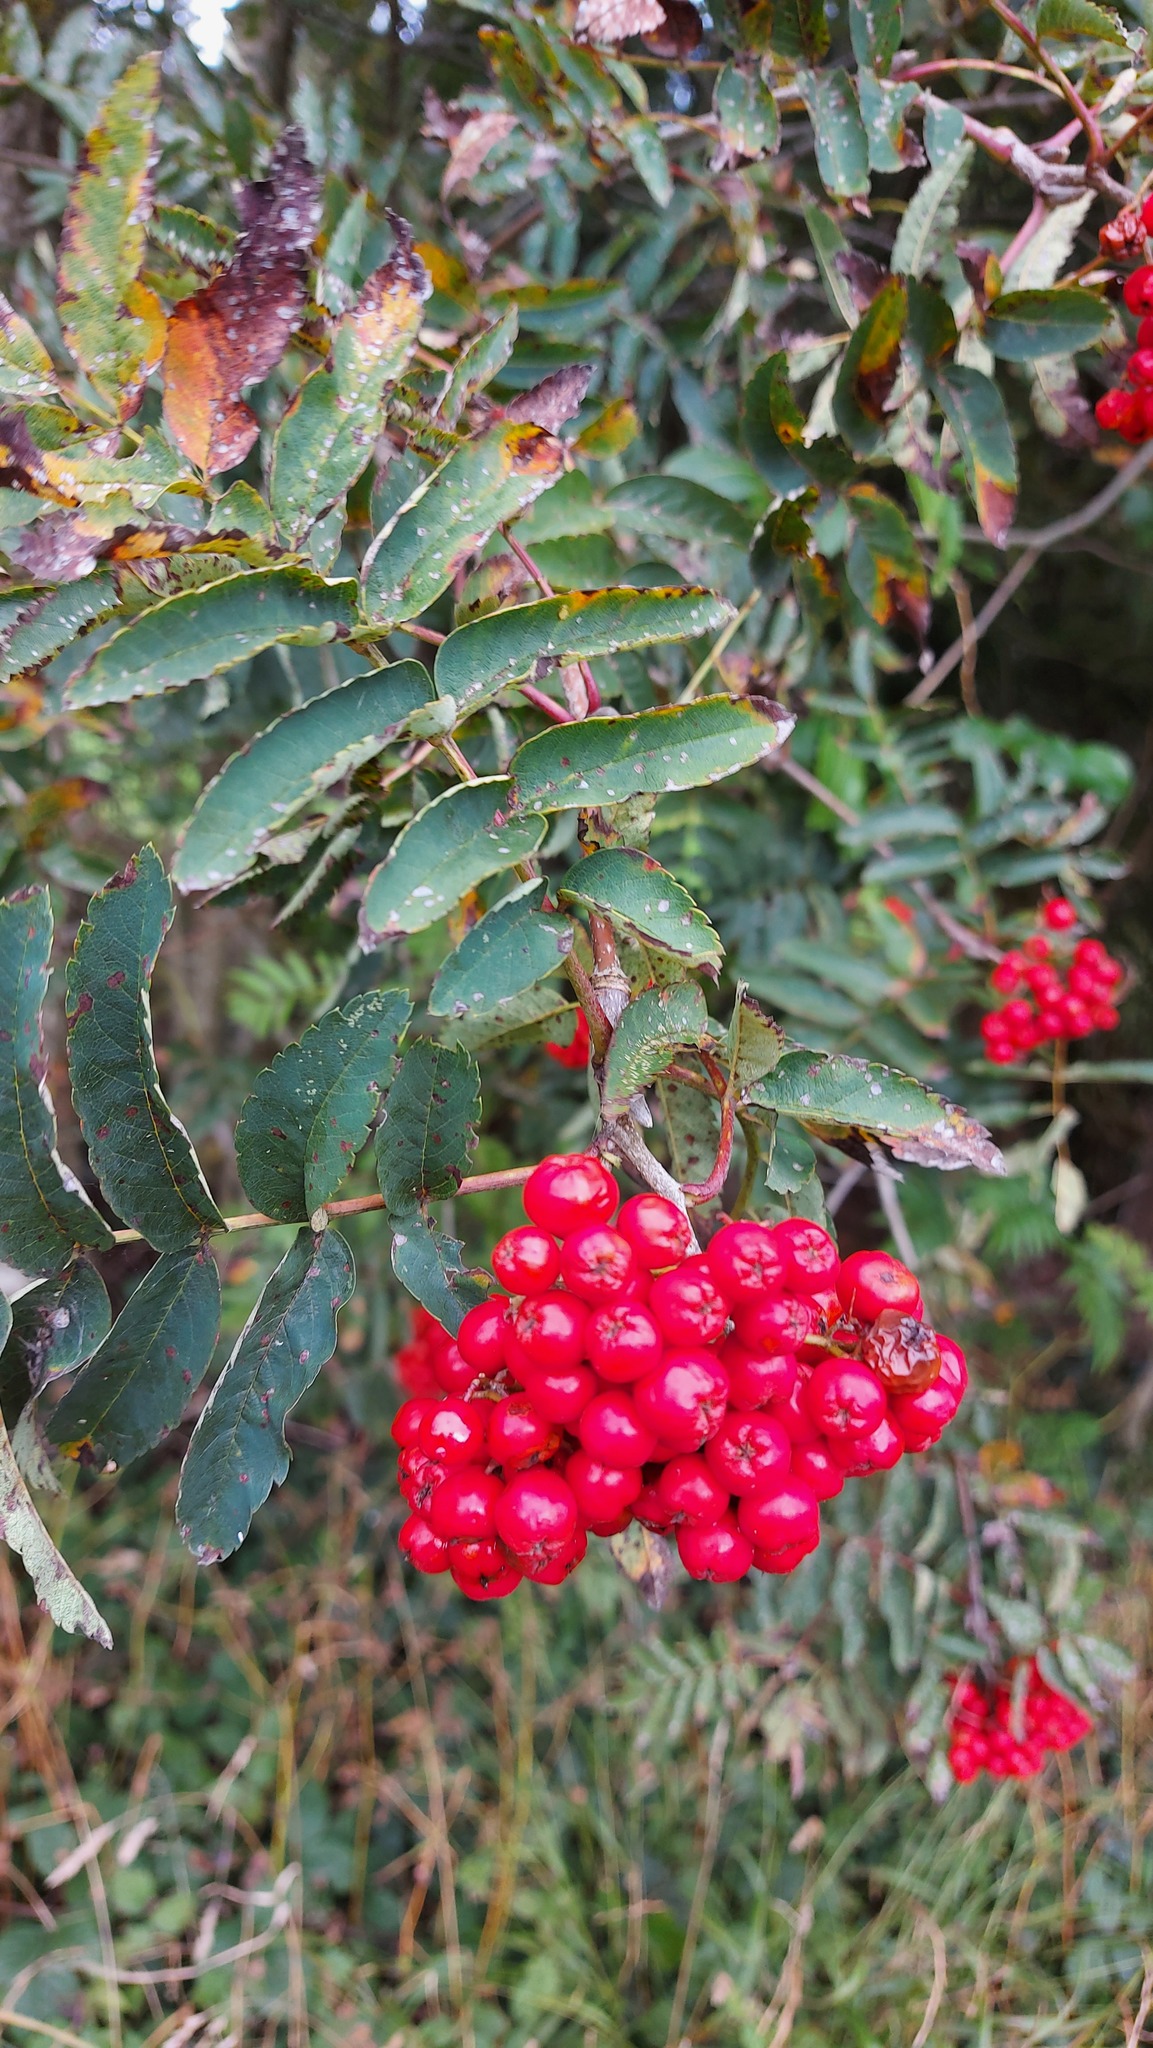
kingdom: Plantae
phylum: Tracheophyta
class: Magnoliopsida
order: Rosales
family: Rosaceae
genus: Sorbus
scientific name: Sorbus aucuparia
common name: Rowan
